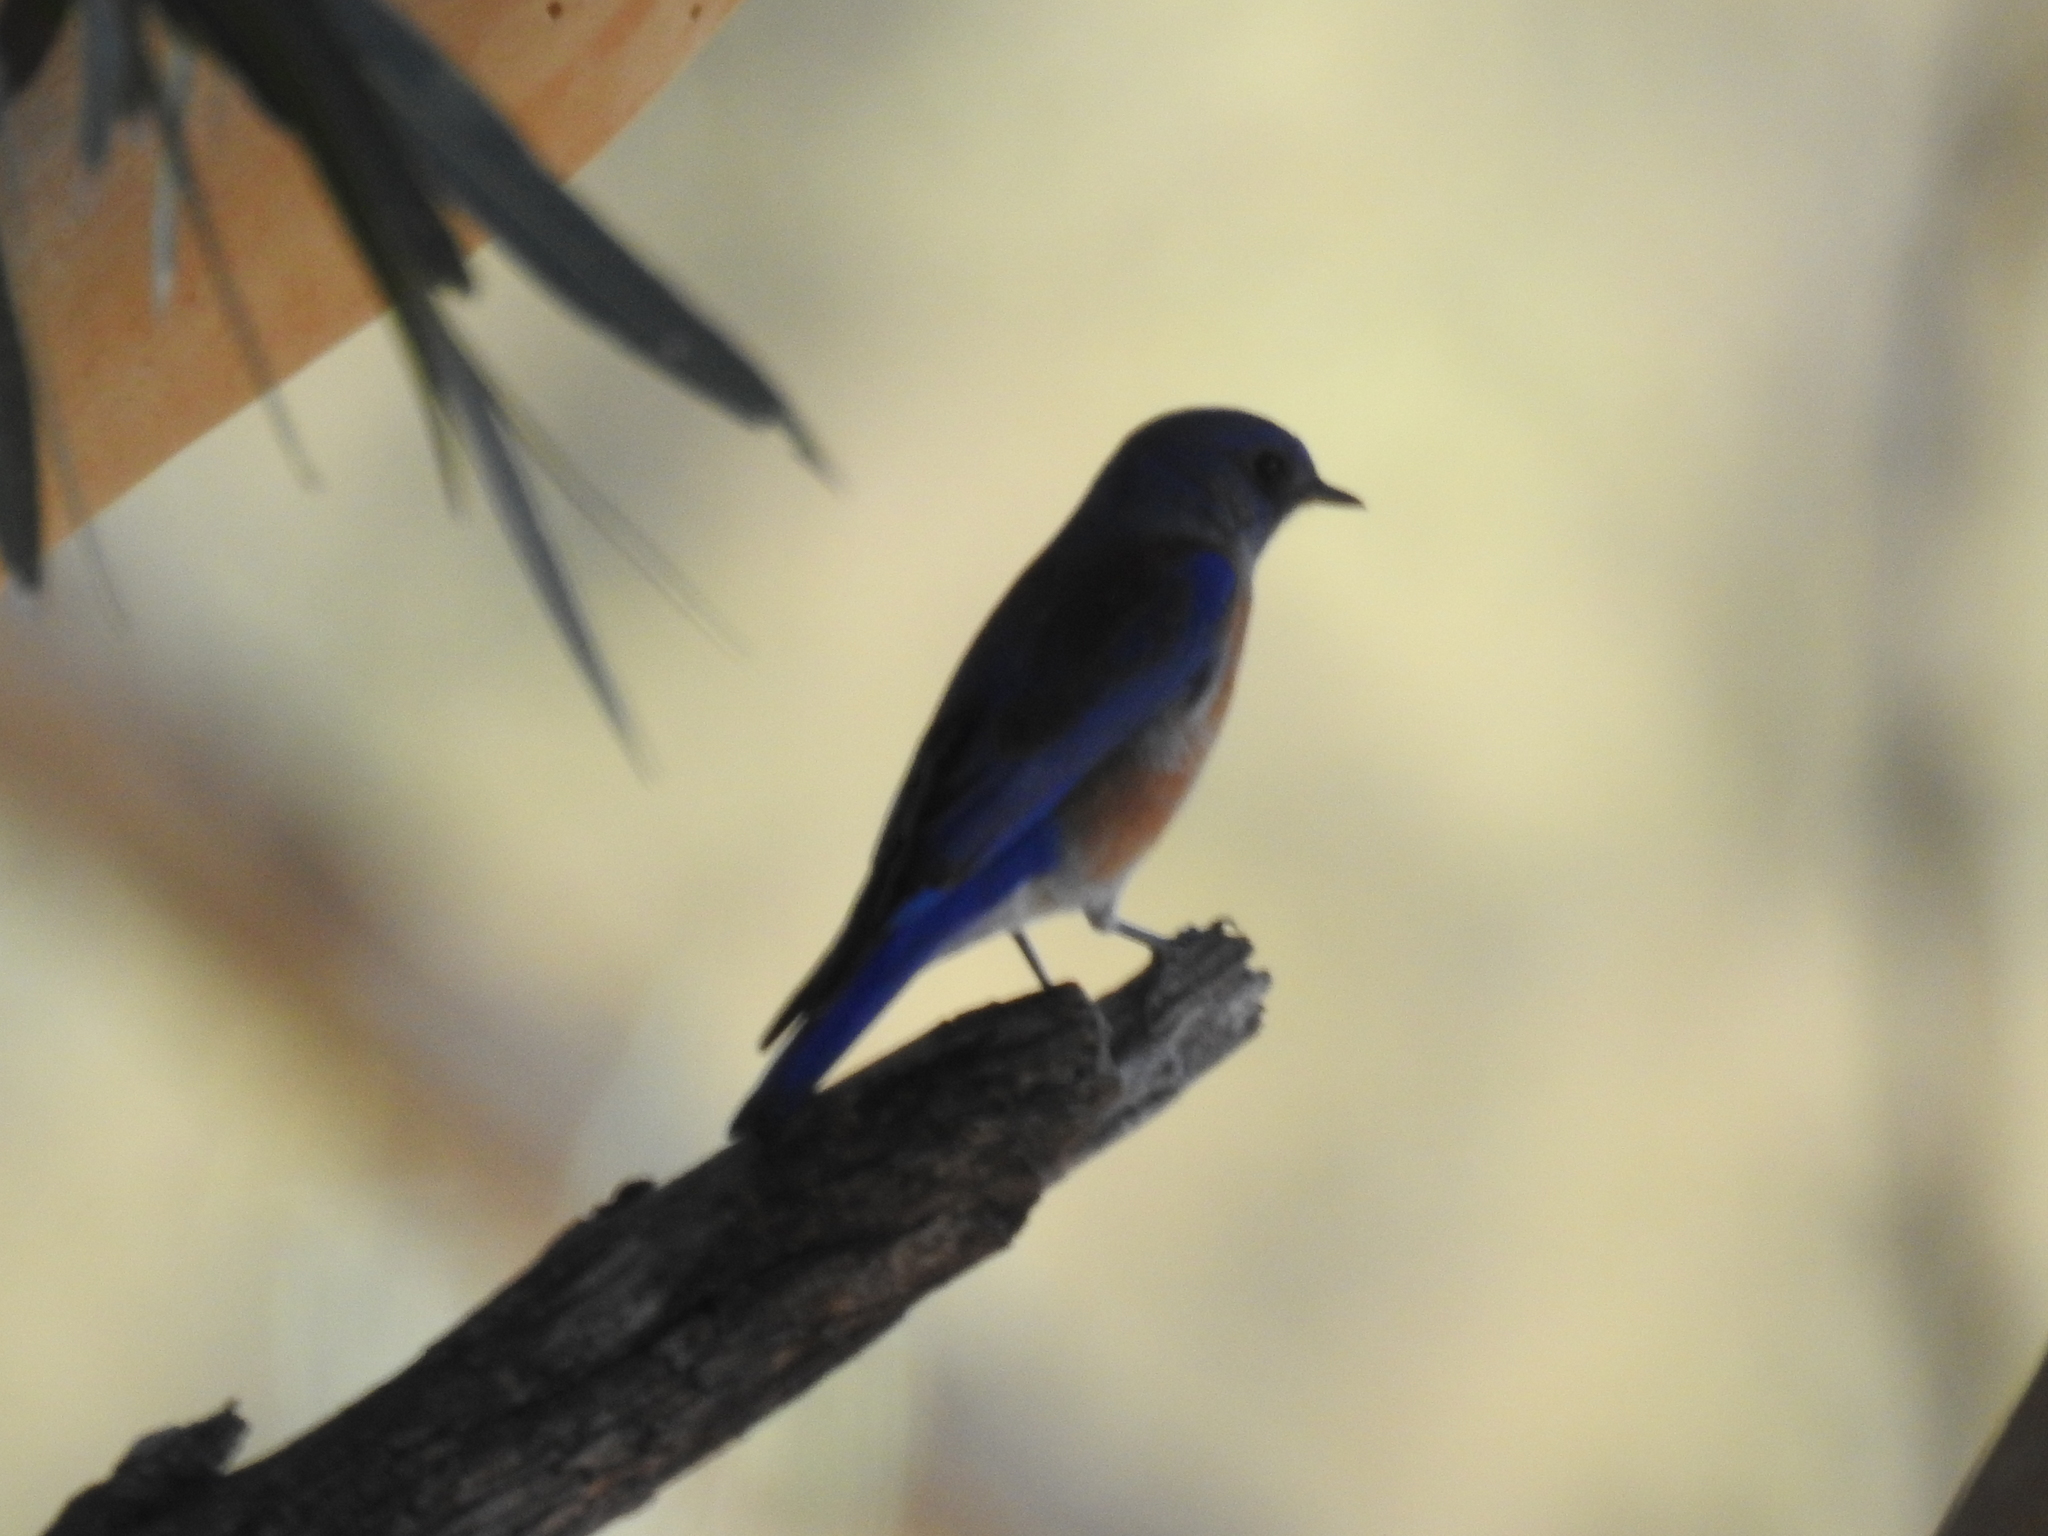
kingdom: Animalia
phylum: Chordata
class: Aves
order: Passeriformes
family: Turdidae
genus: Sialia
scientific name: Sialia mexicana
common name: Western bluebird
